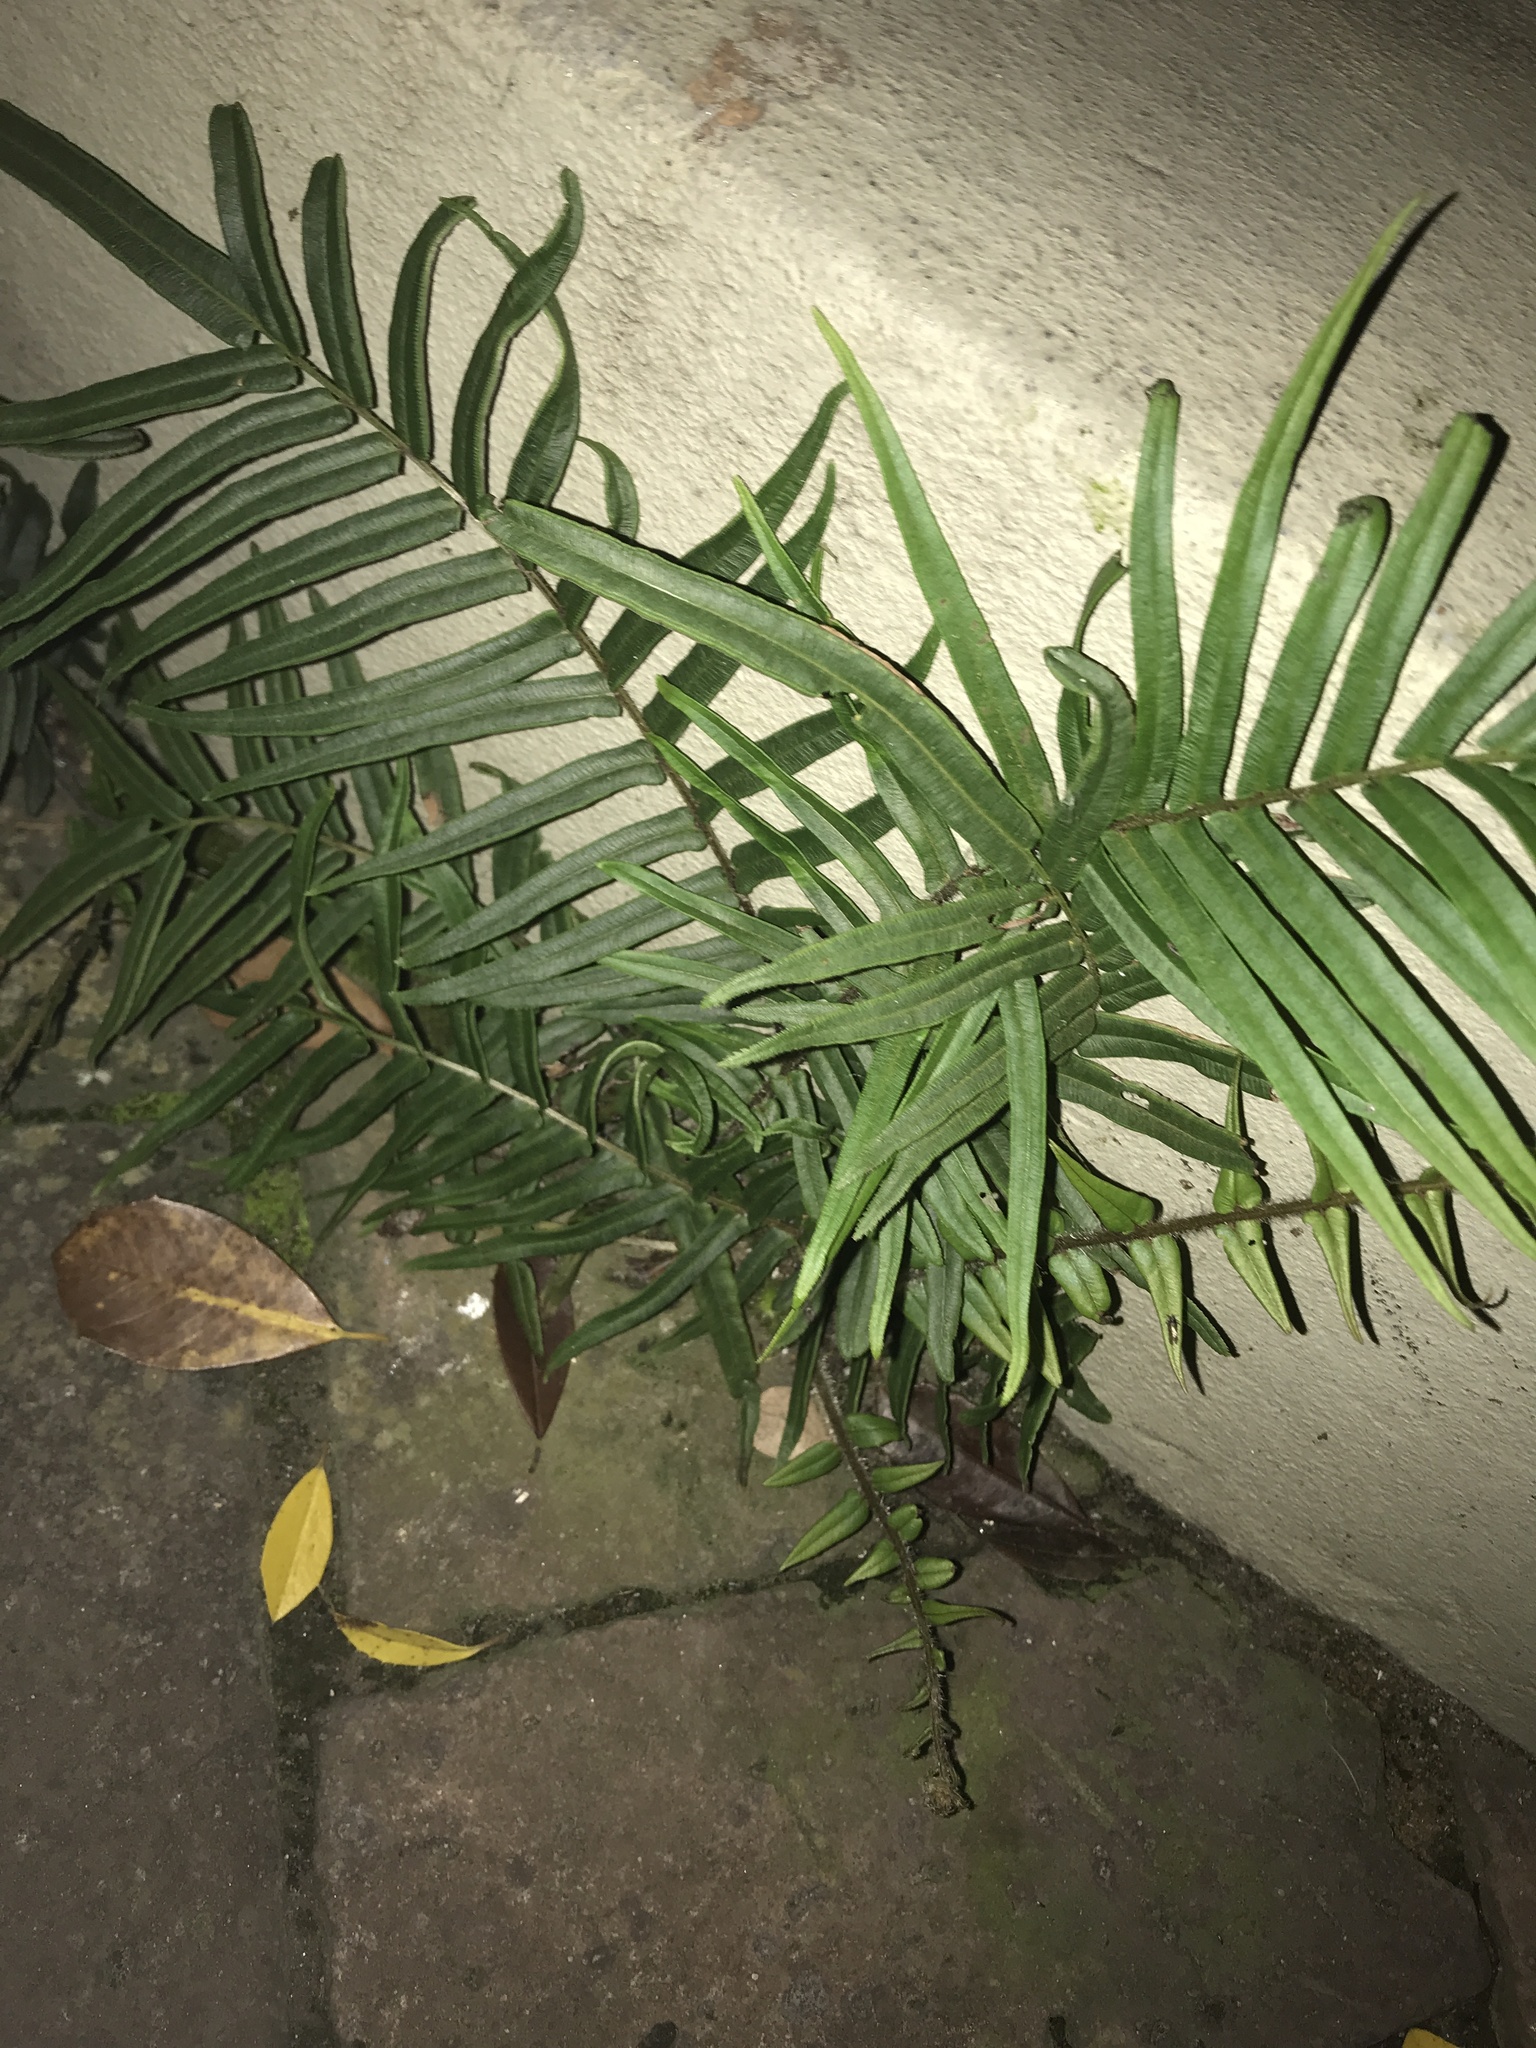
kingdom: Plantae
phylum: Tracheophyta
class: Polypodiopsida
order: Polypodiales
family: Pteridaceae
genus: Pteris
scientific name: Pteris vittata
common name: Ladder brake
